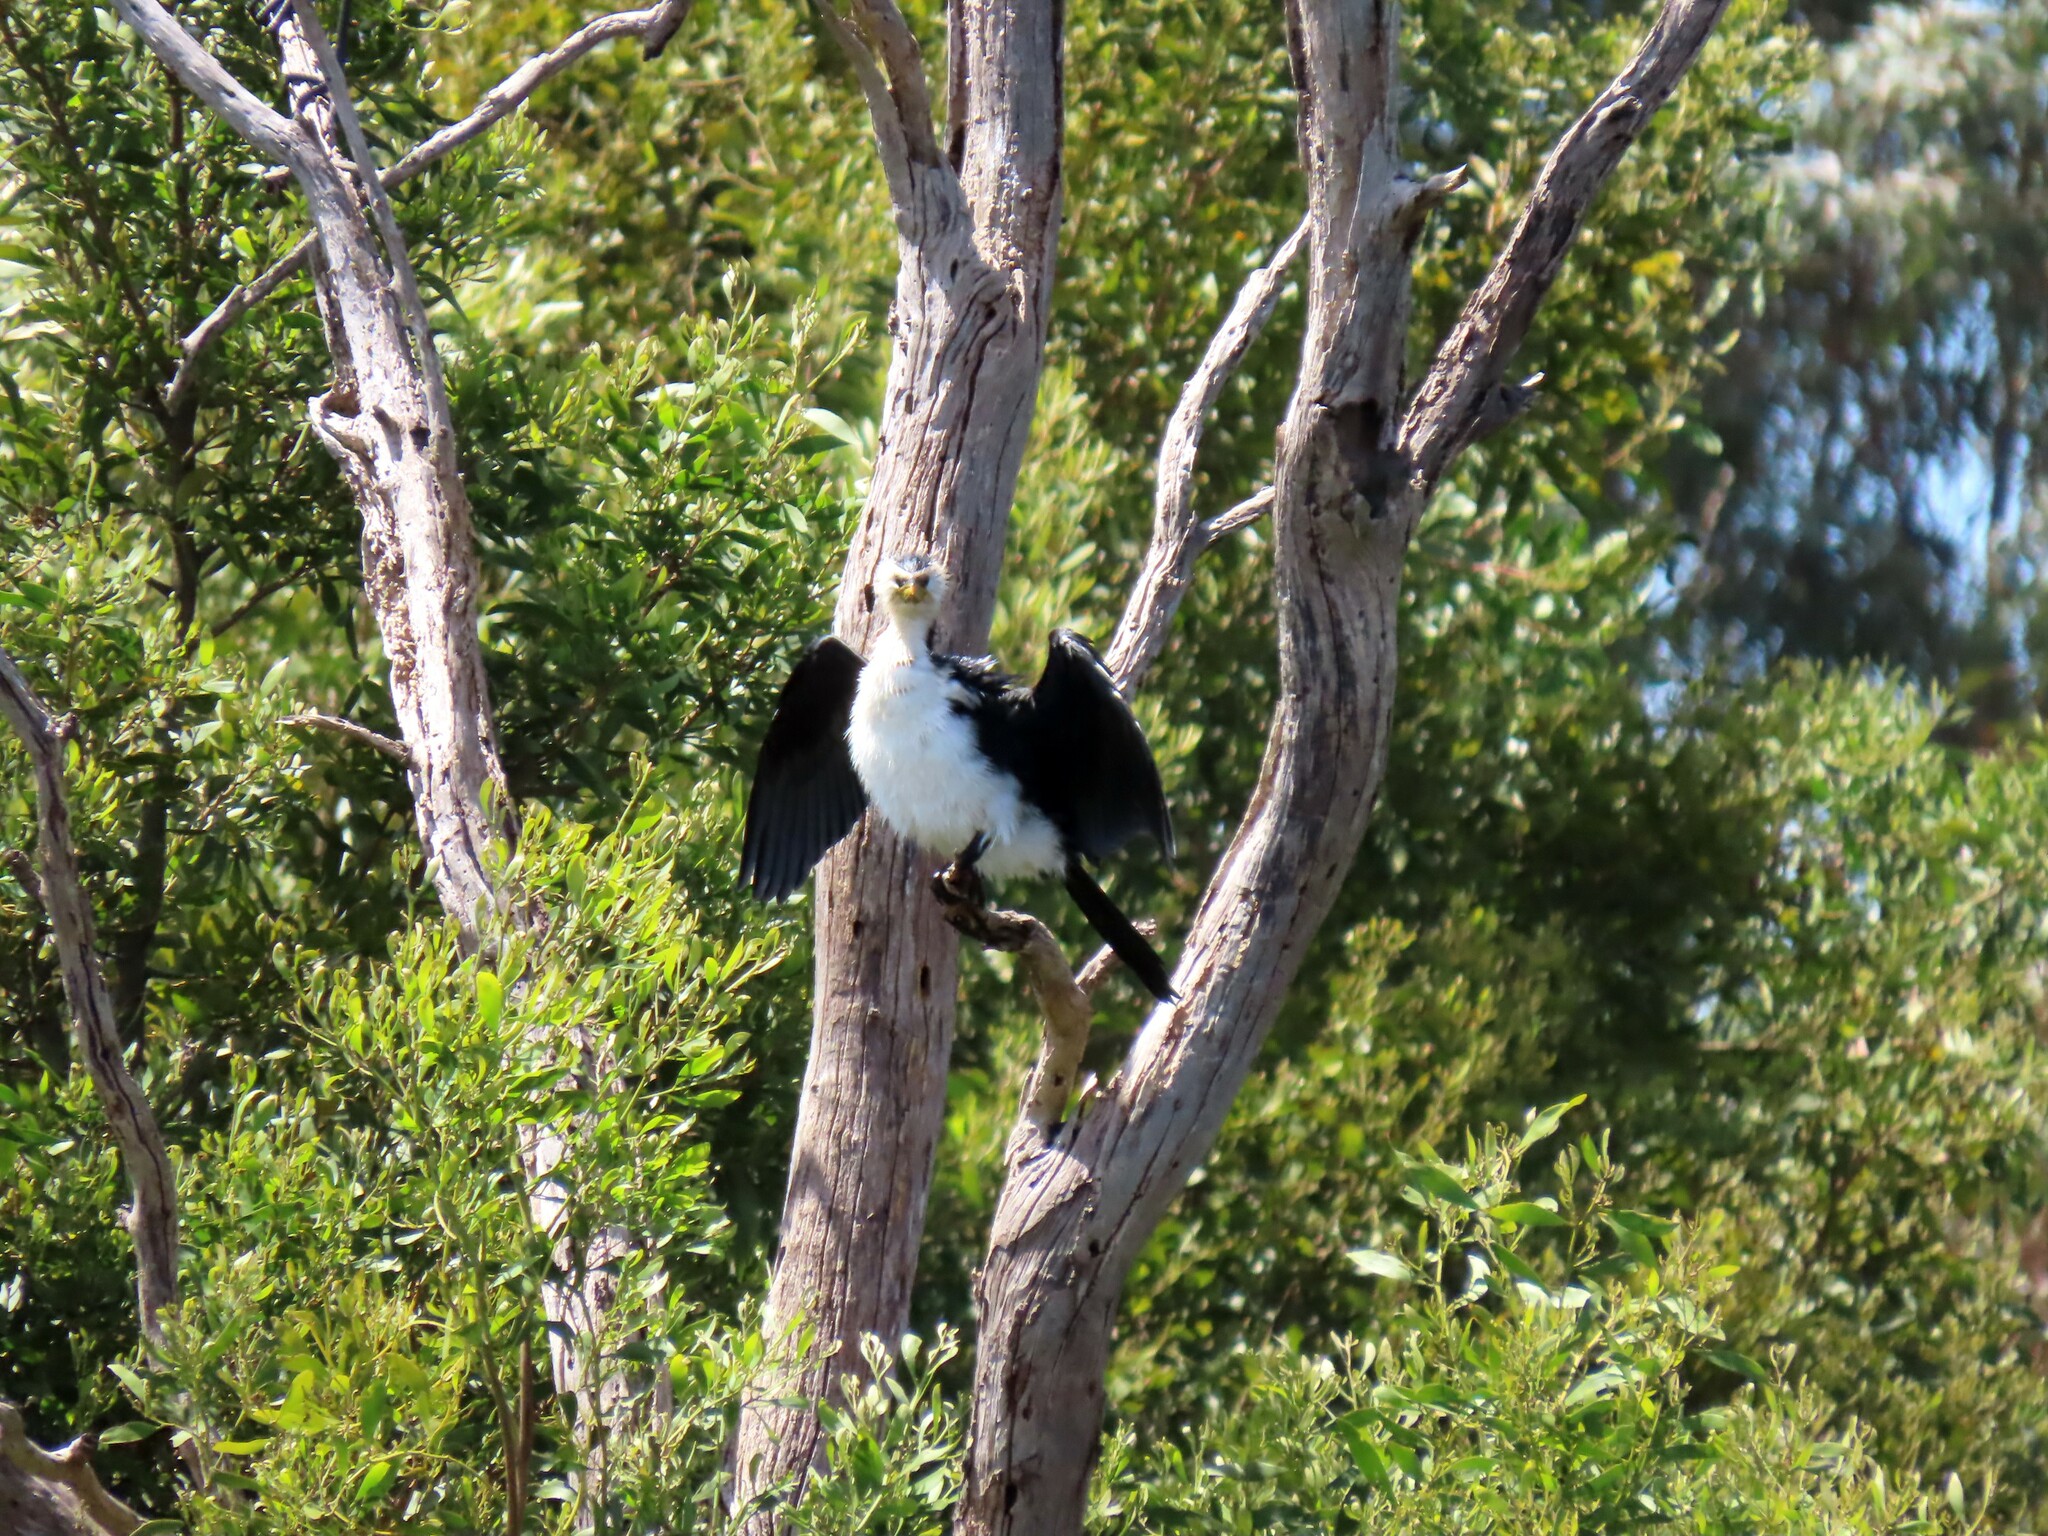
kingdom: Animalia
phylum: Chordata
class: Aves
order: Suliformes
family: Phalacrocoracidae
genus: Microcarbo
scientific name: Microcarbo melanoleucos
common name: Little pied cormorant
